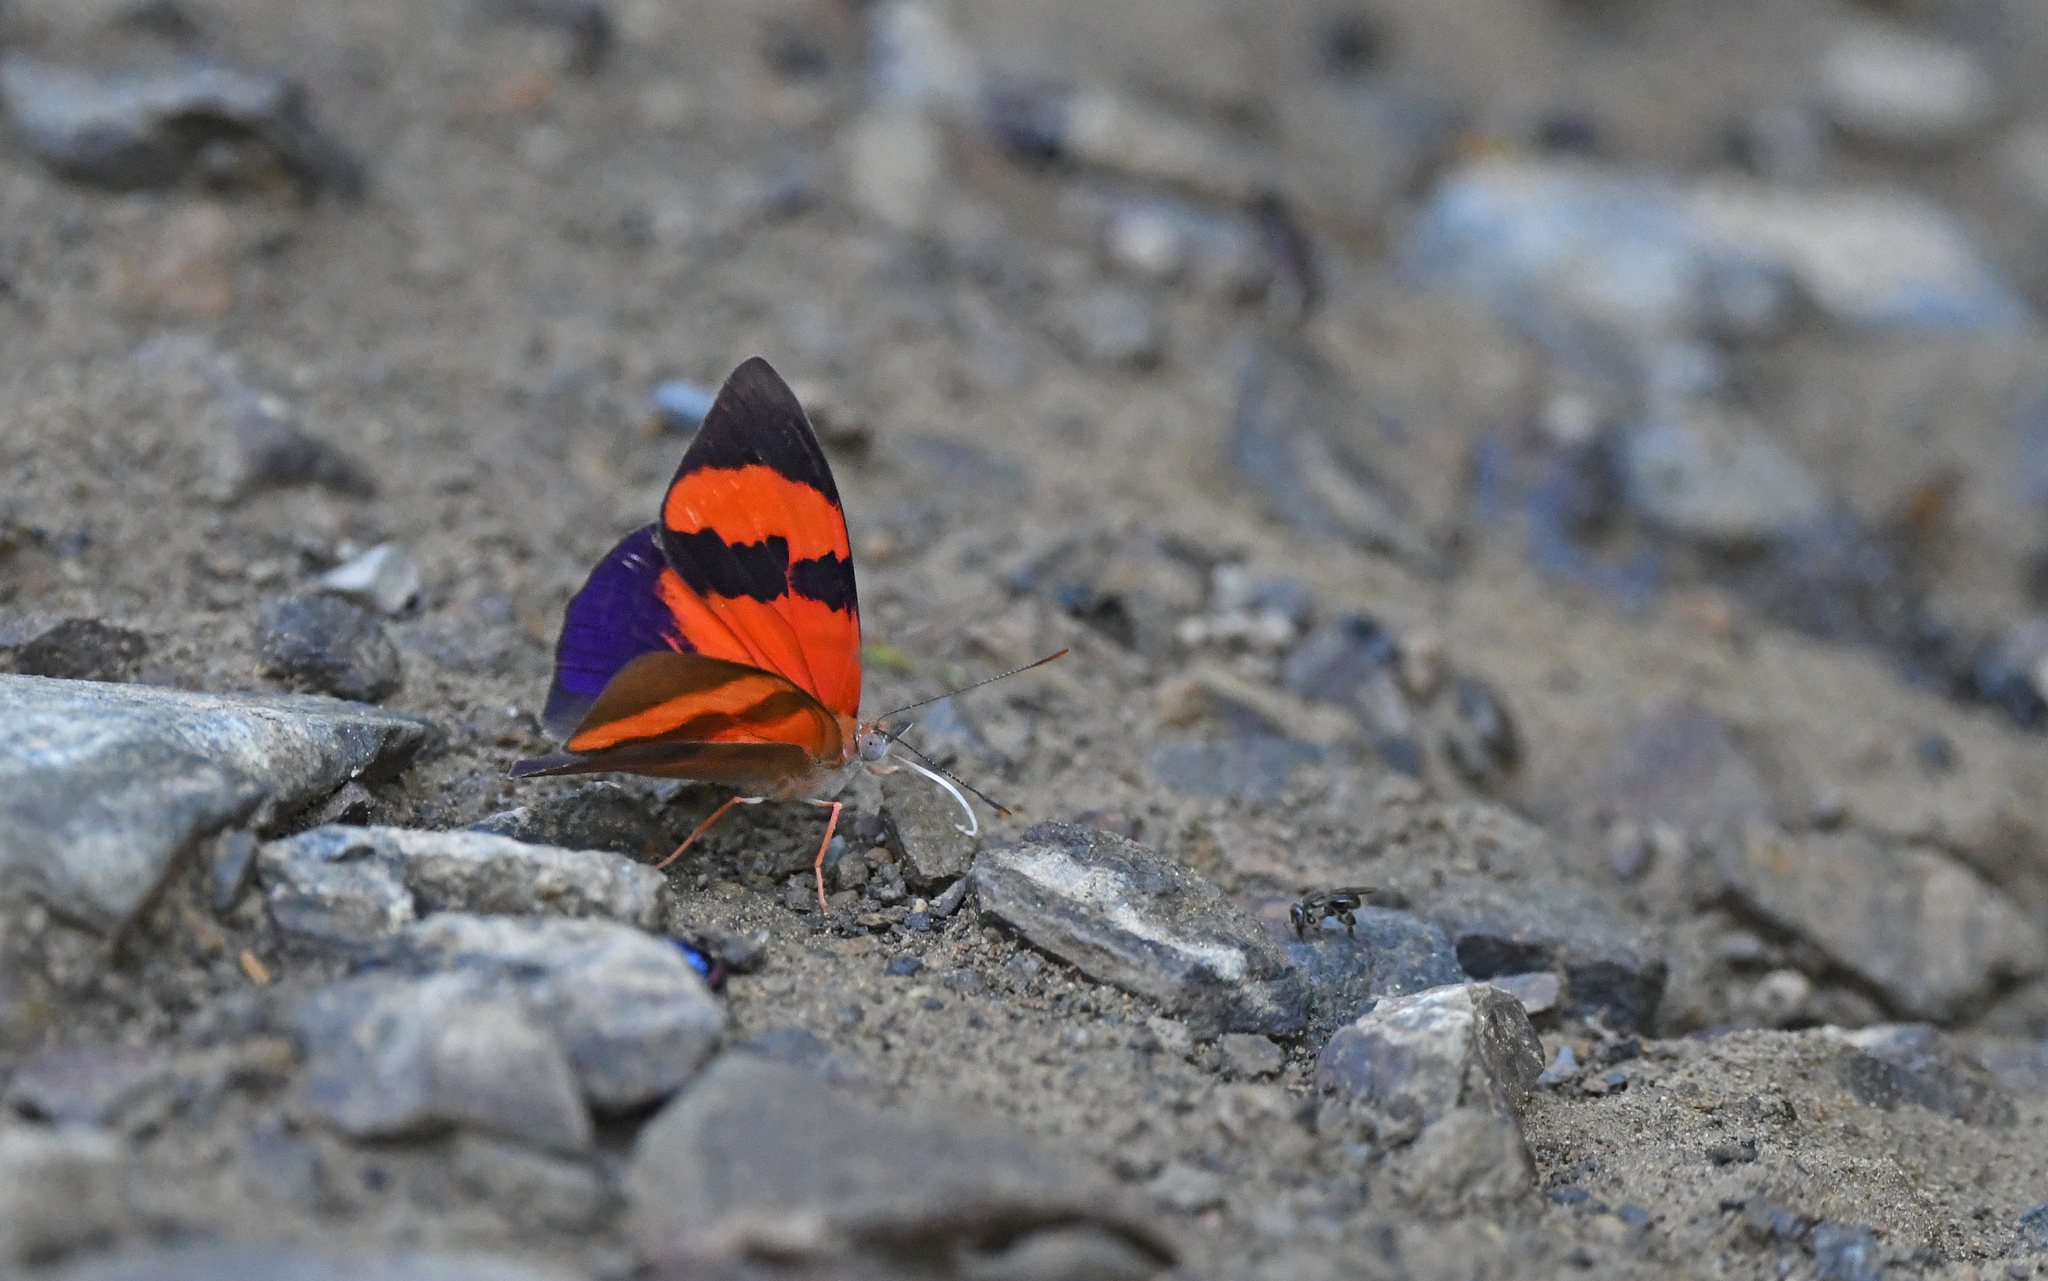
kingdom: Animalia
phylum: Arthropoda
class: Insecta
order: Lepidoptera
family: Nymphalidae
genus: Temenis
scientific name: Temenis pulchra
